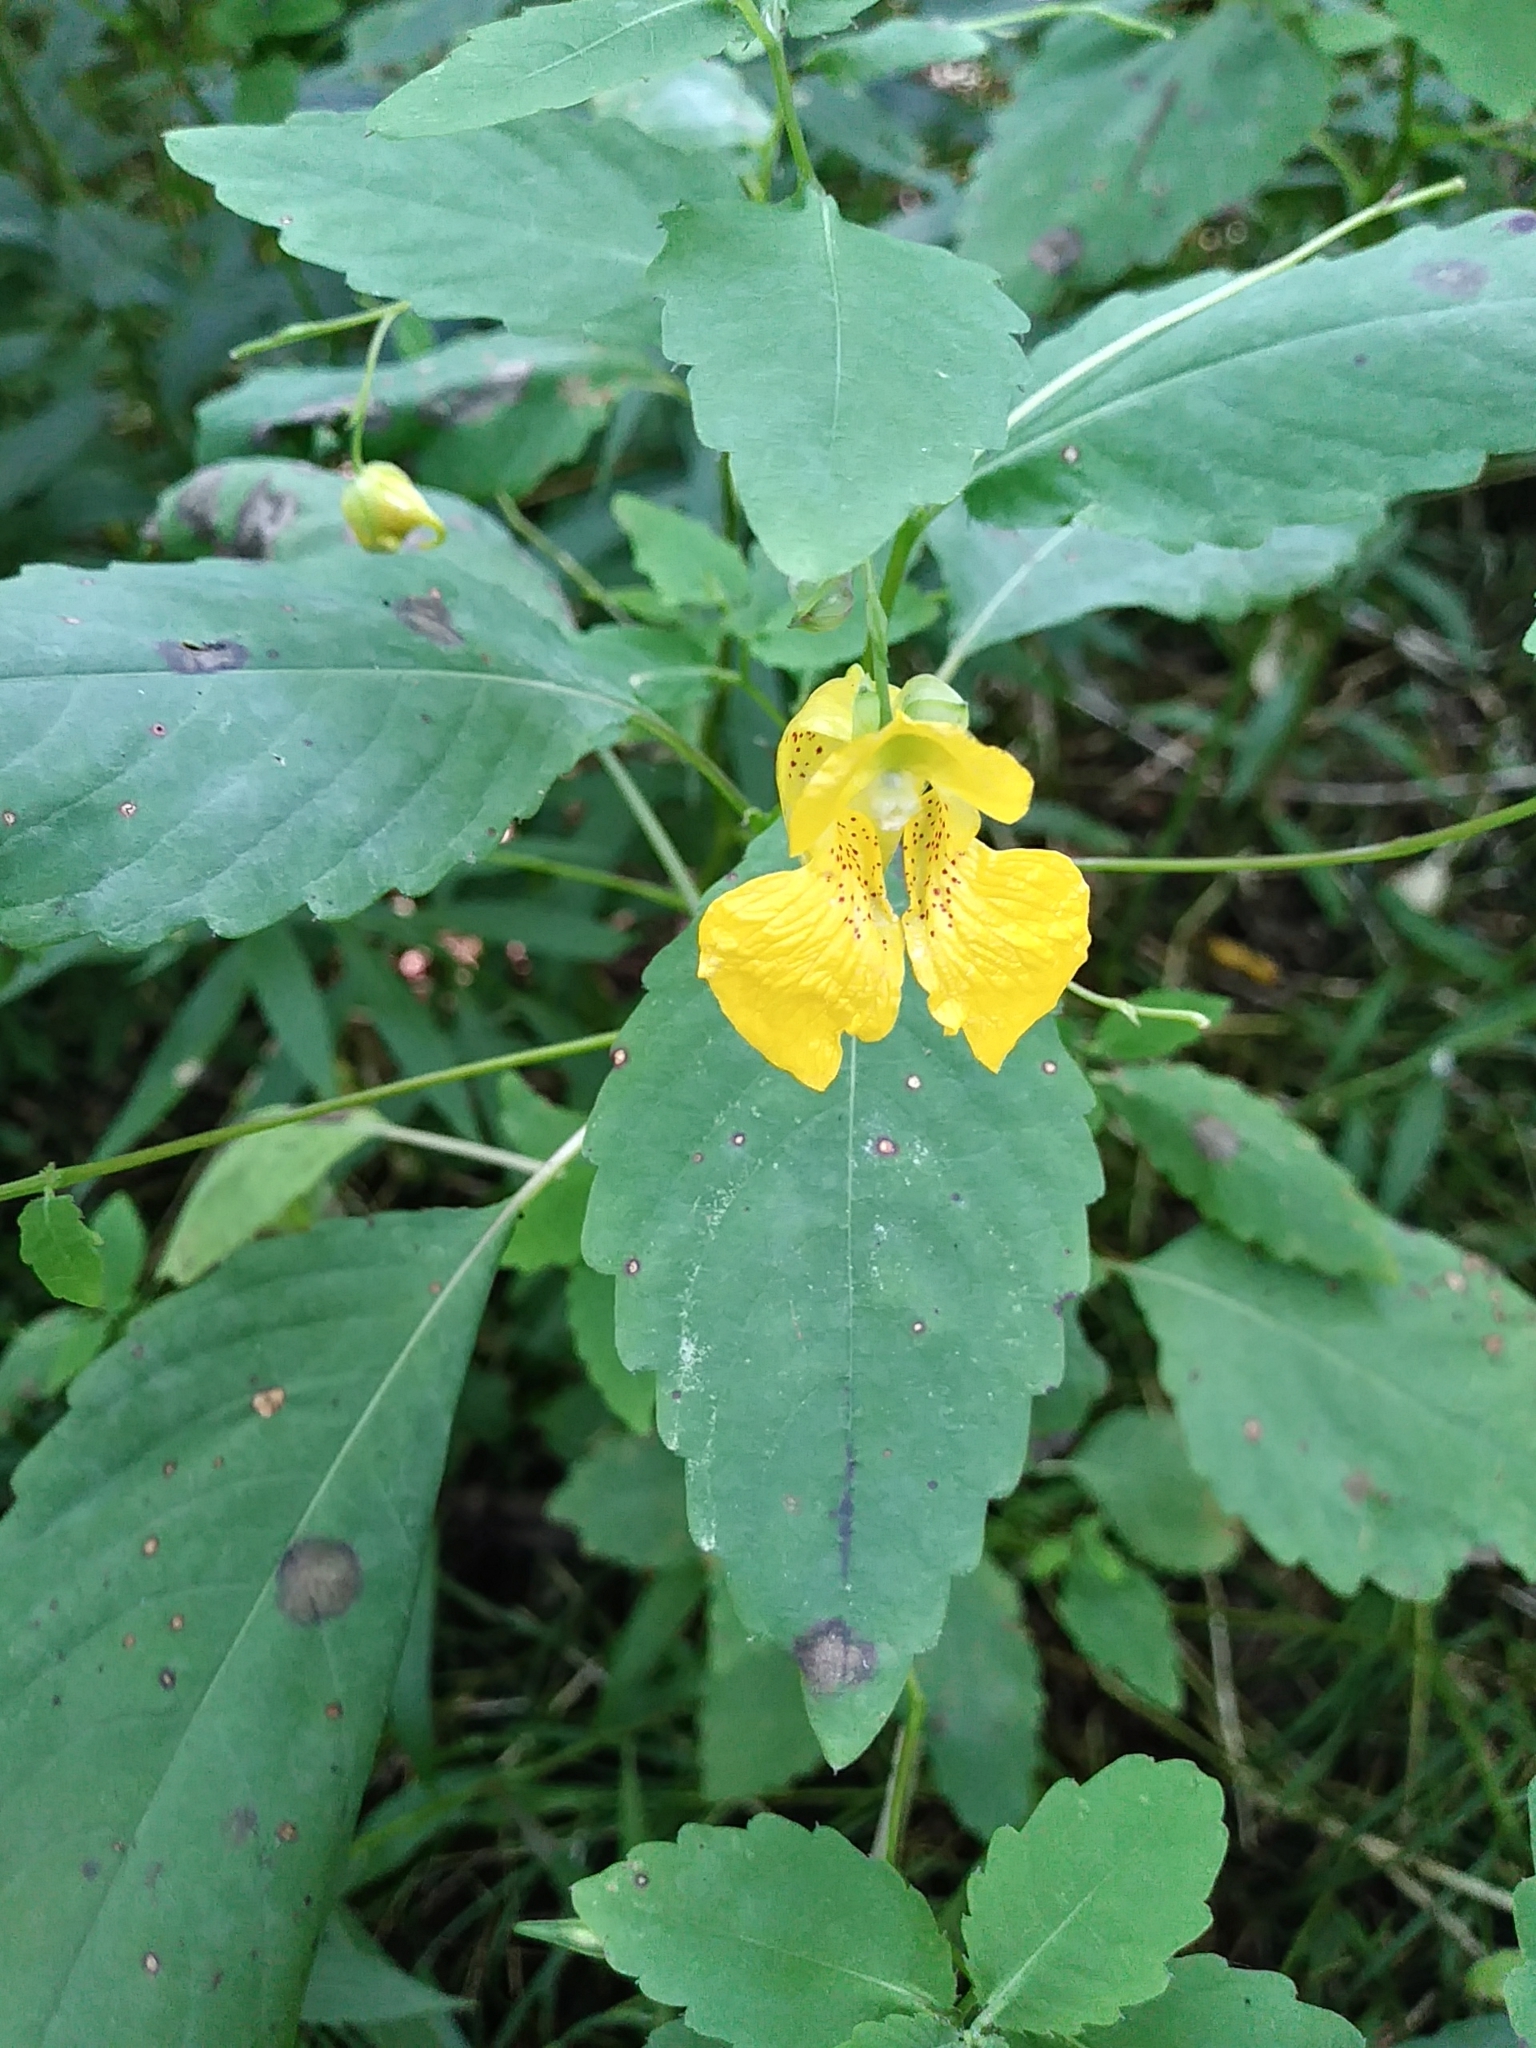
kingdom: Plantae
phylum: Tracheophyta
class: Magnoliopsida
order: Ericales
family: Balsaminaceae
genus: Impatiens
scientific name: Impatiens pallida
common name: Pale snapweed
